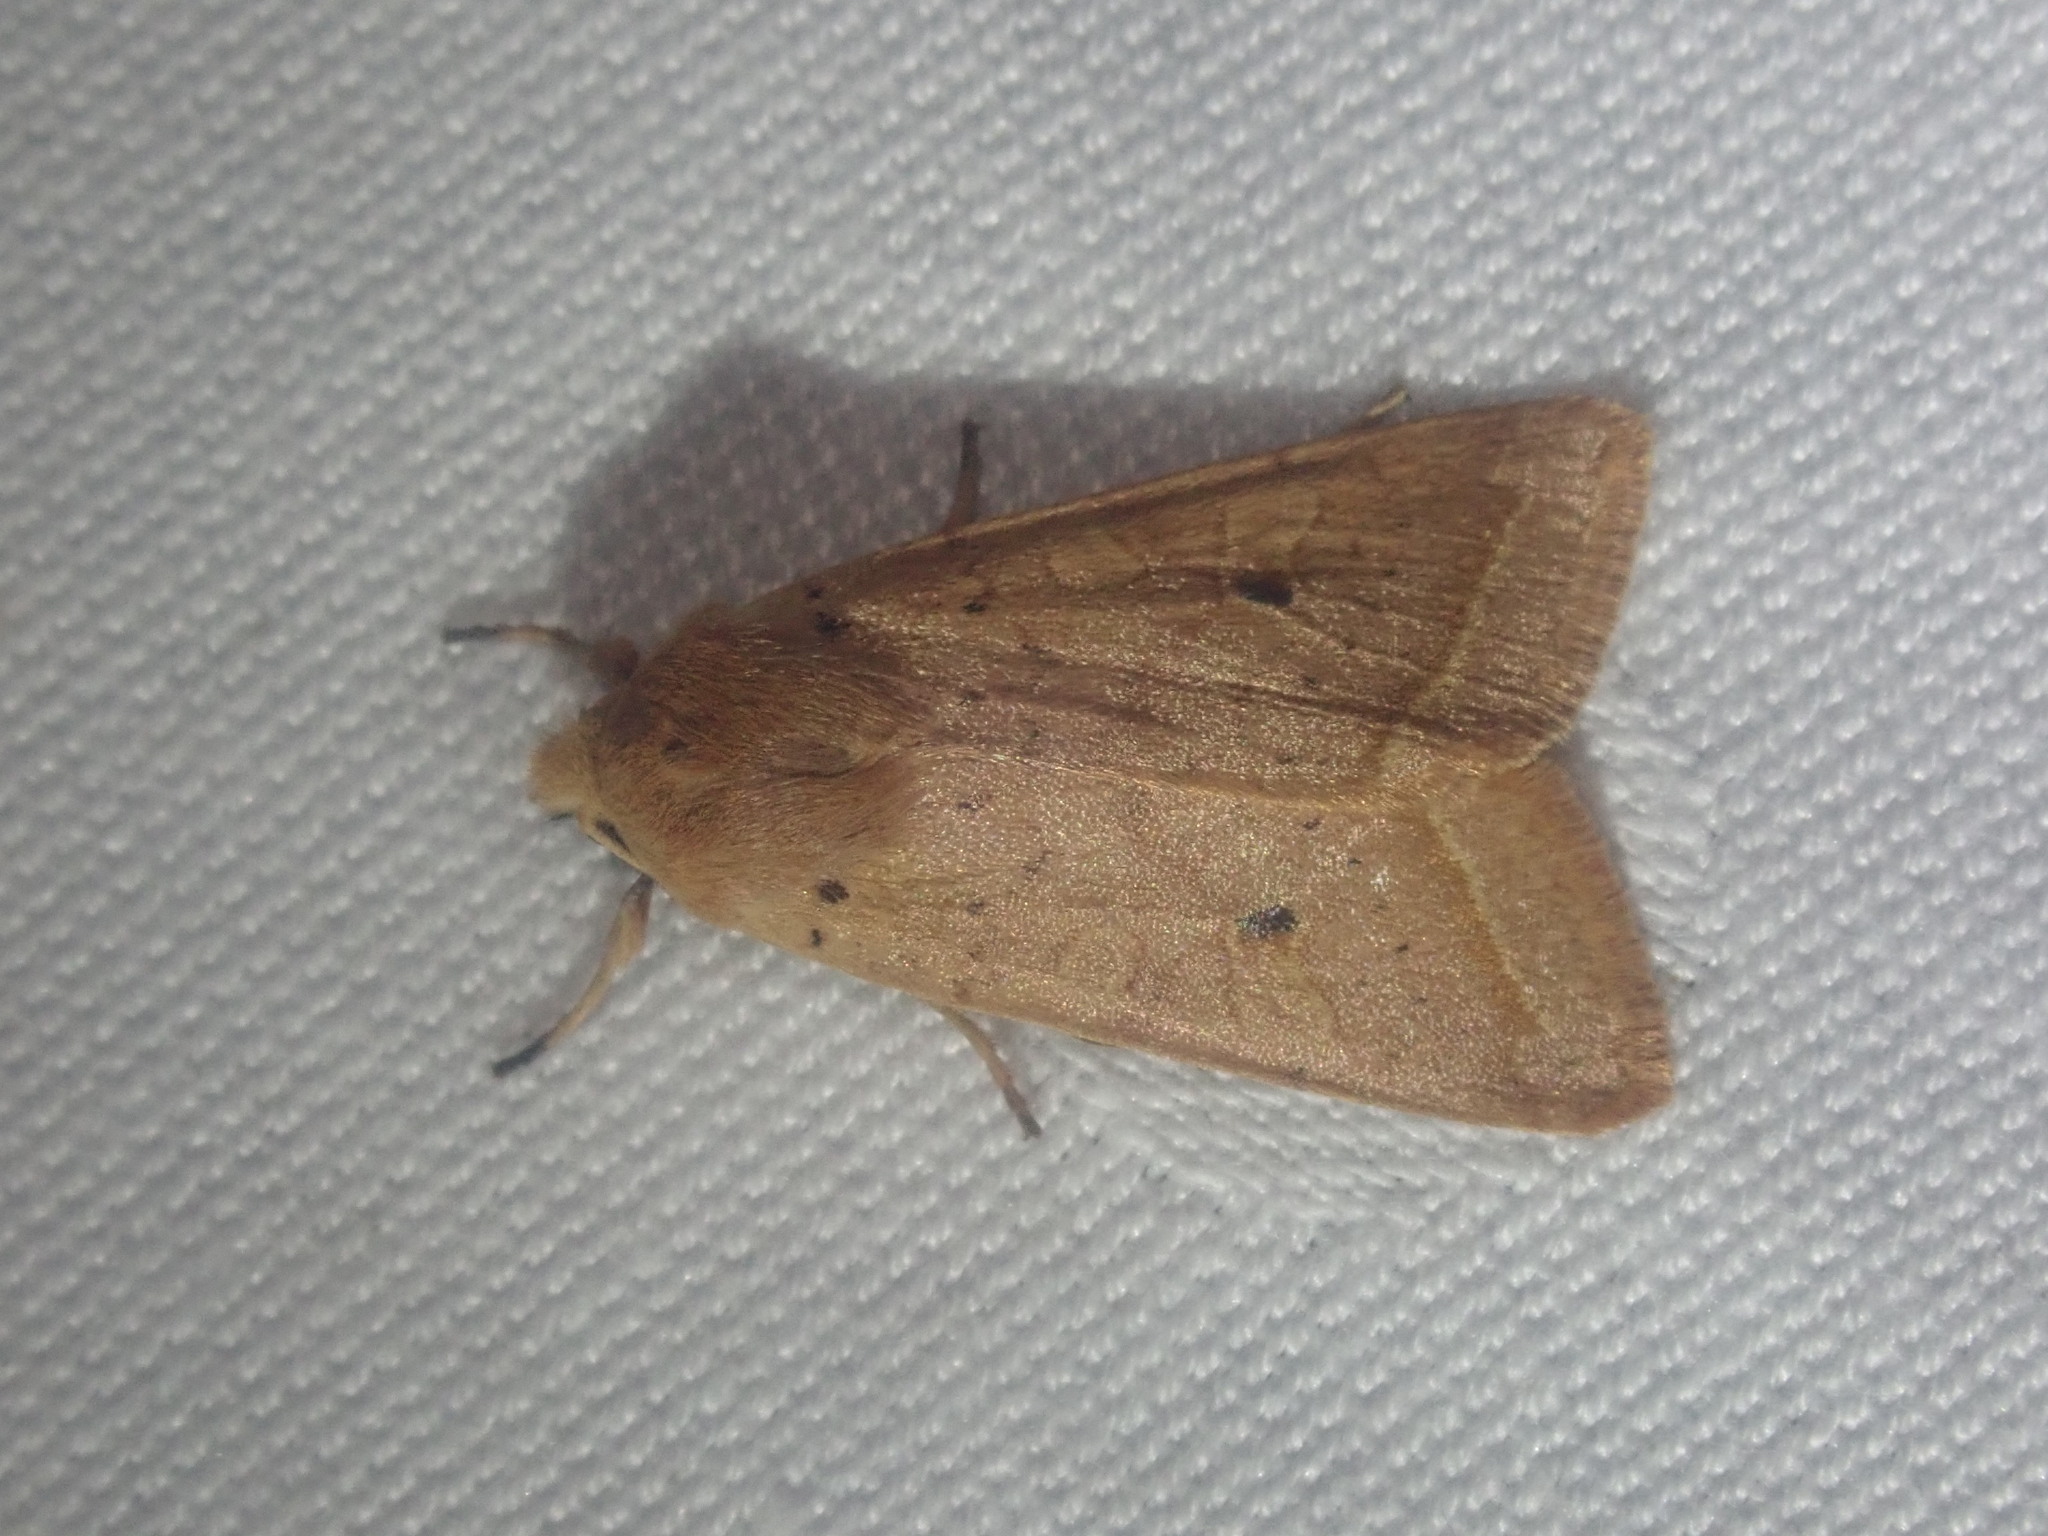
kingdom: Animalia
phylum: Arthropoda
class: Insecta
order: Lepidoptera
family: Noctuidae
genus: Agrochola
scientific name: Agrochola macilenta
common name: Yellow-line quaker
